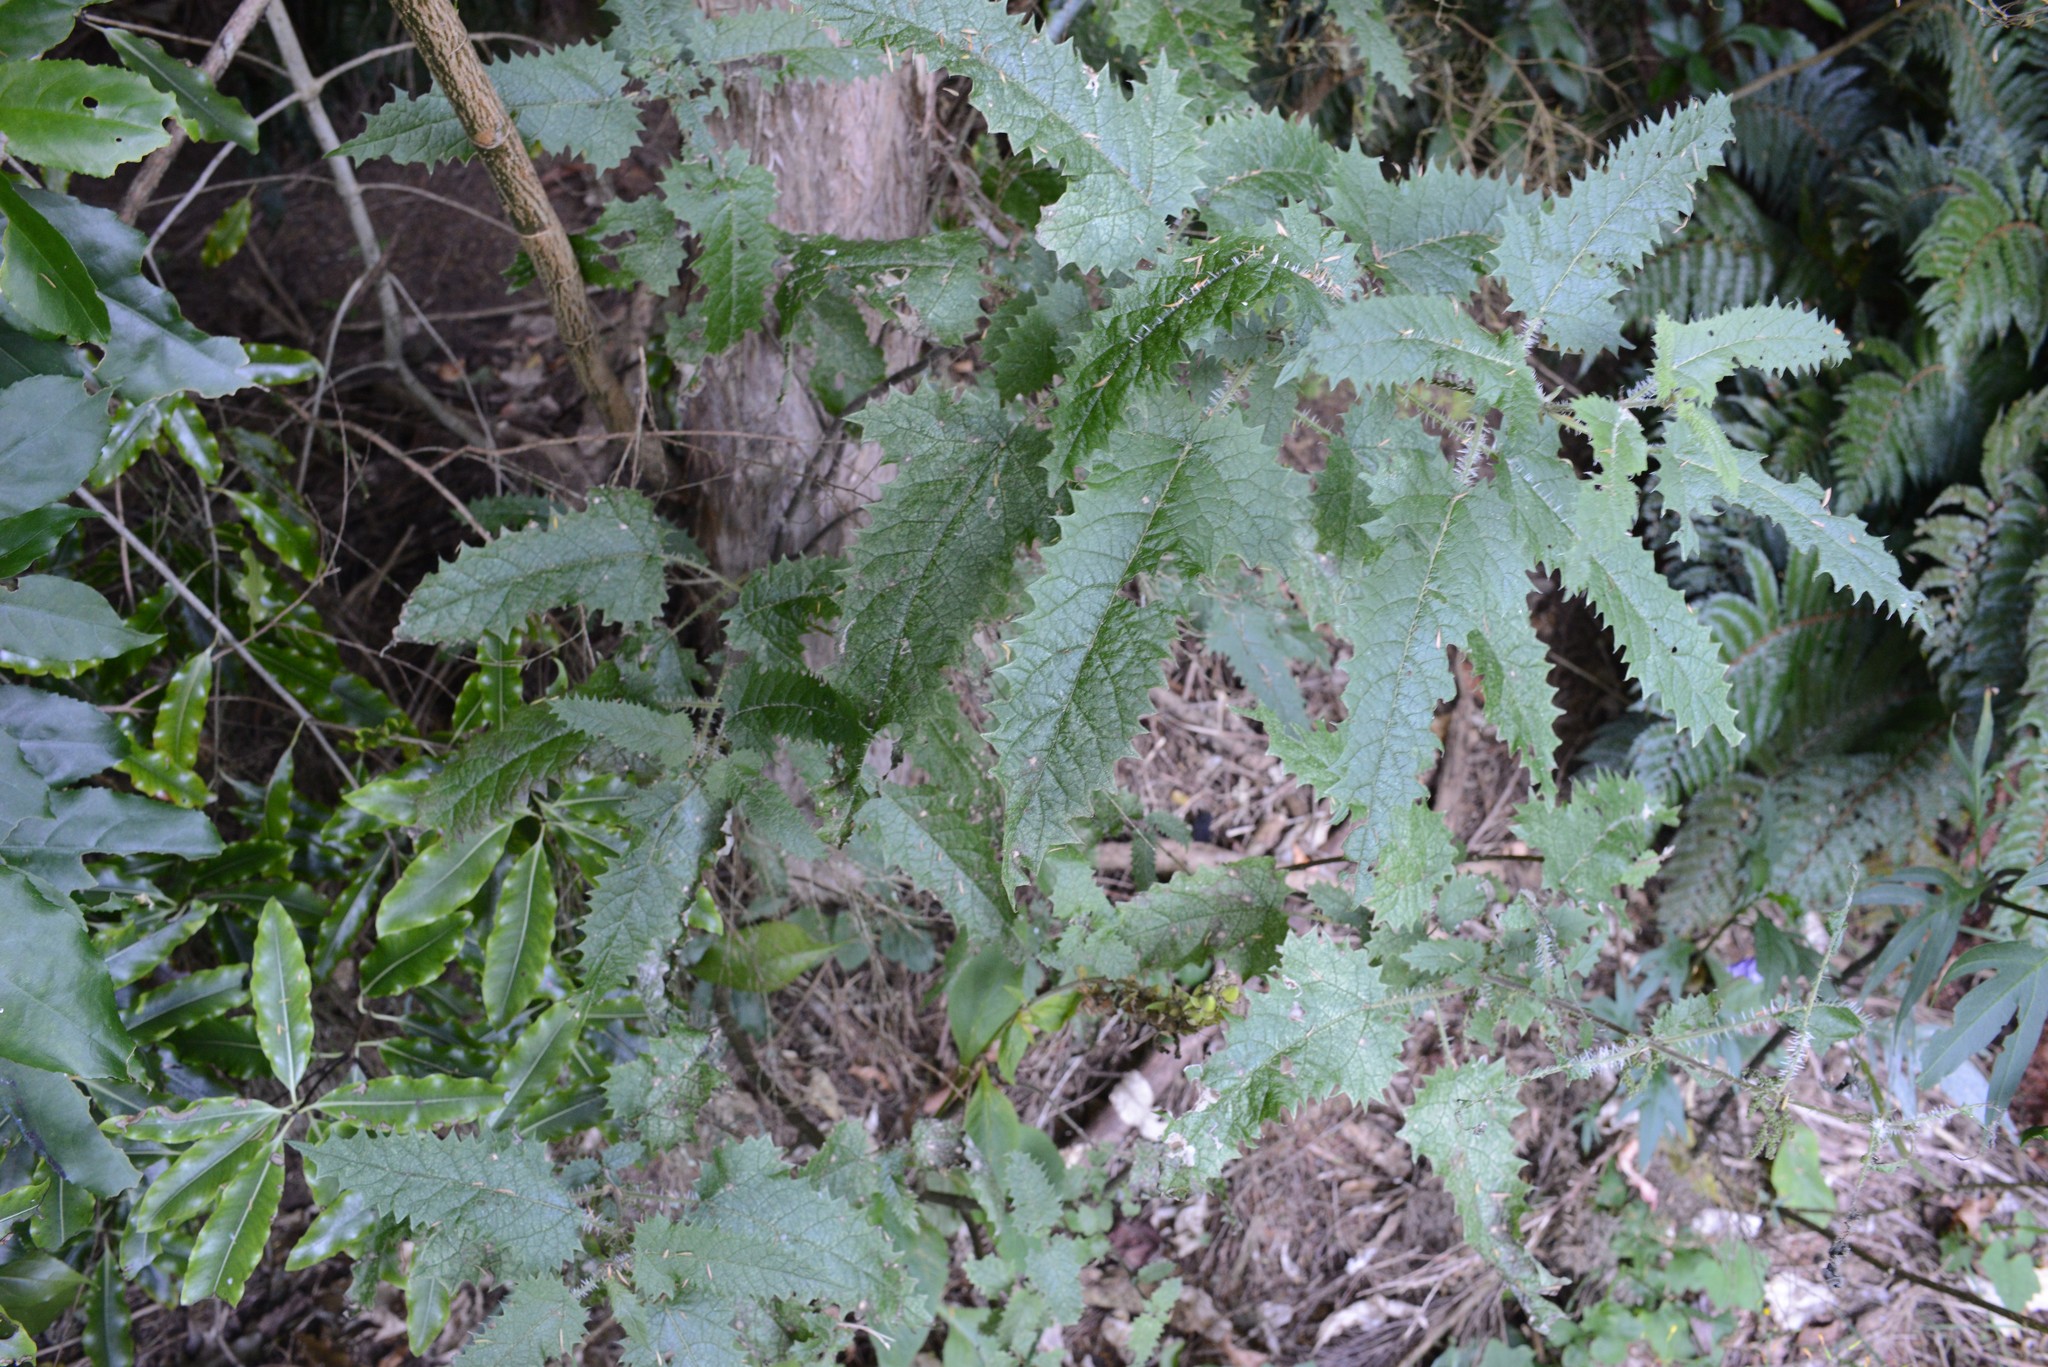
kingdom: Plantae
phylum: Tracheophyta
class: Magnoliopsida
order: Rosales
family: Urticaceae
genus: Urtica
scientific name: Urtica ferox
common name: Tree nettle
